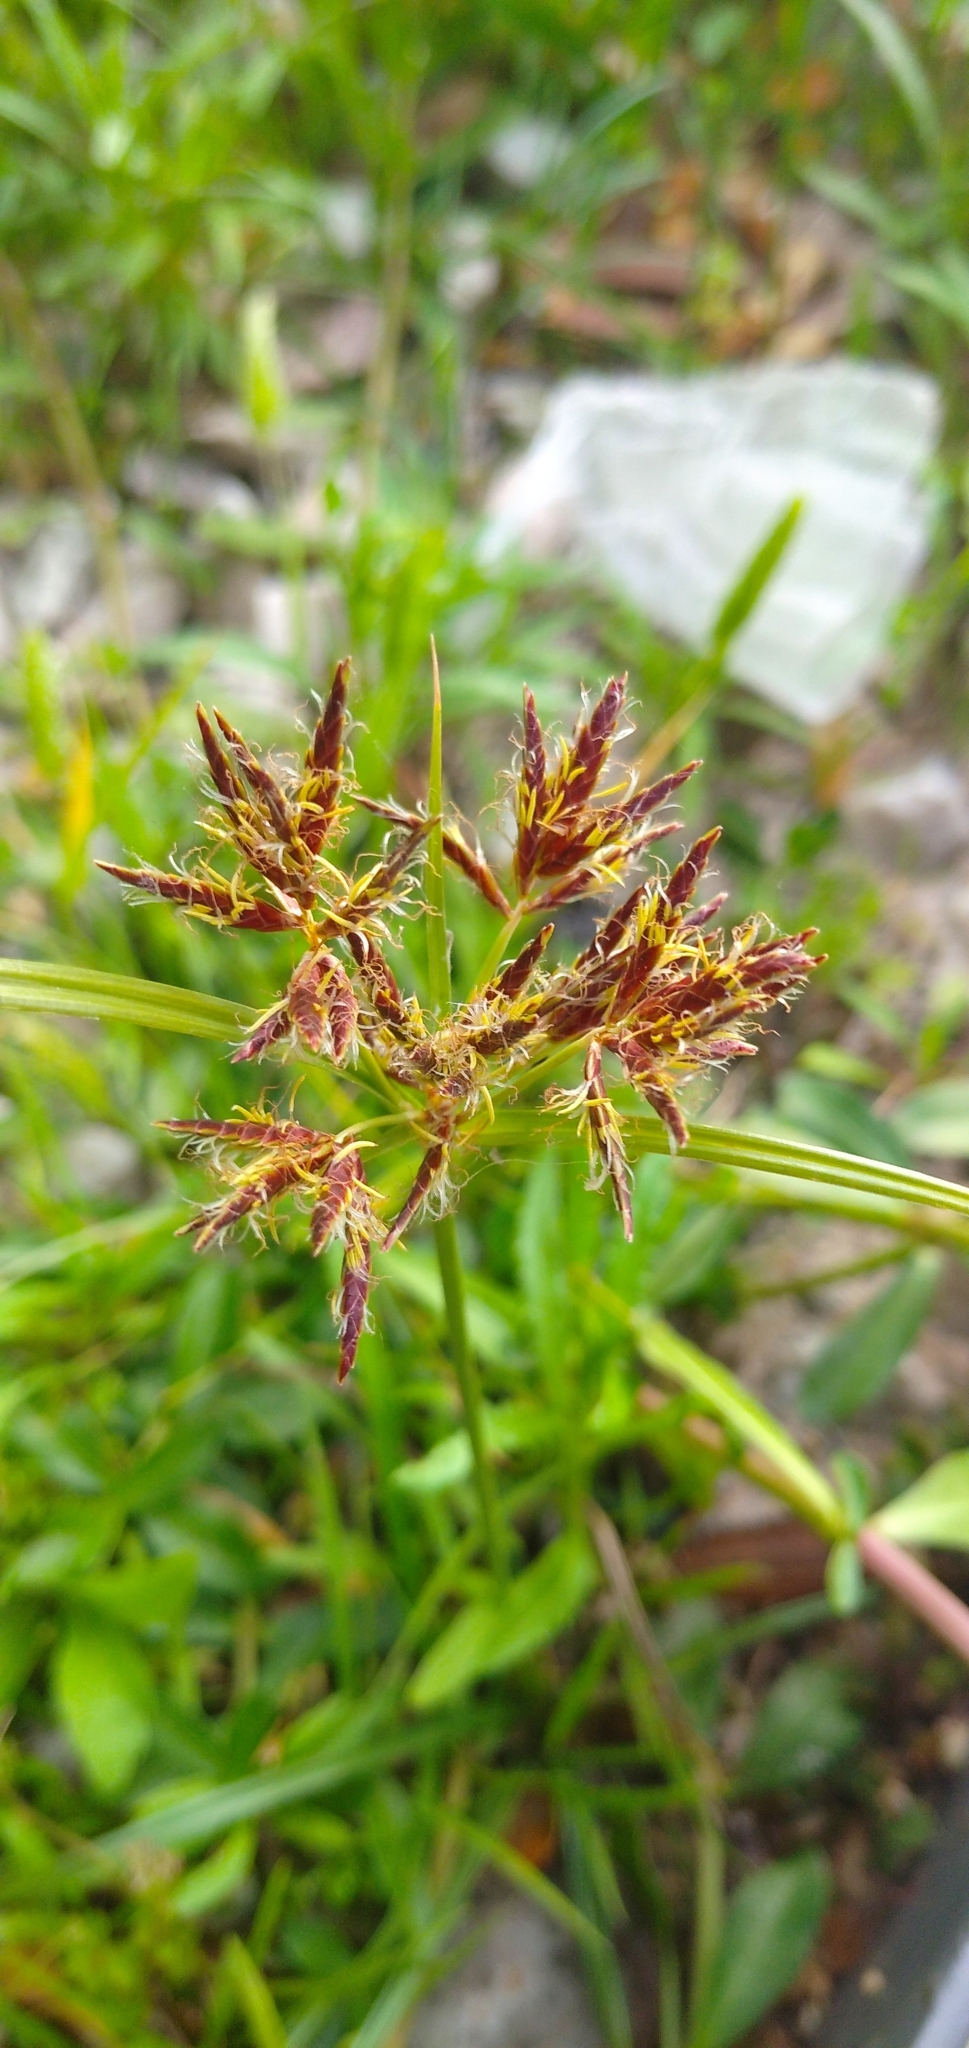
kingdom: Plantae
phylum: Tracheophyta
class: Liliopsida
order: Poales
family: Cyperaceae
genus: Cyperus
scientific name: Cyperus rotundus
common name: Nutgrass
